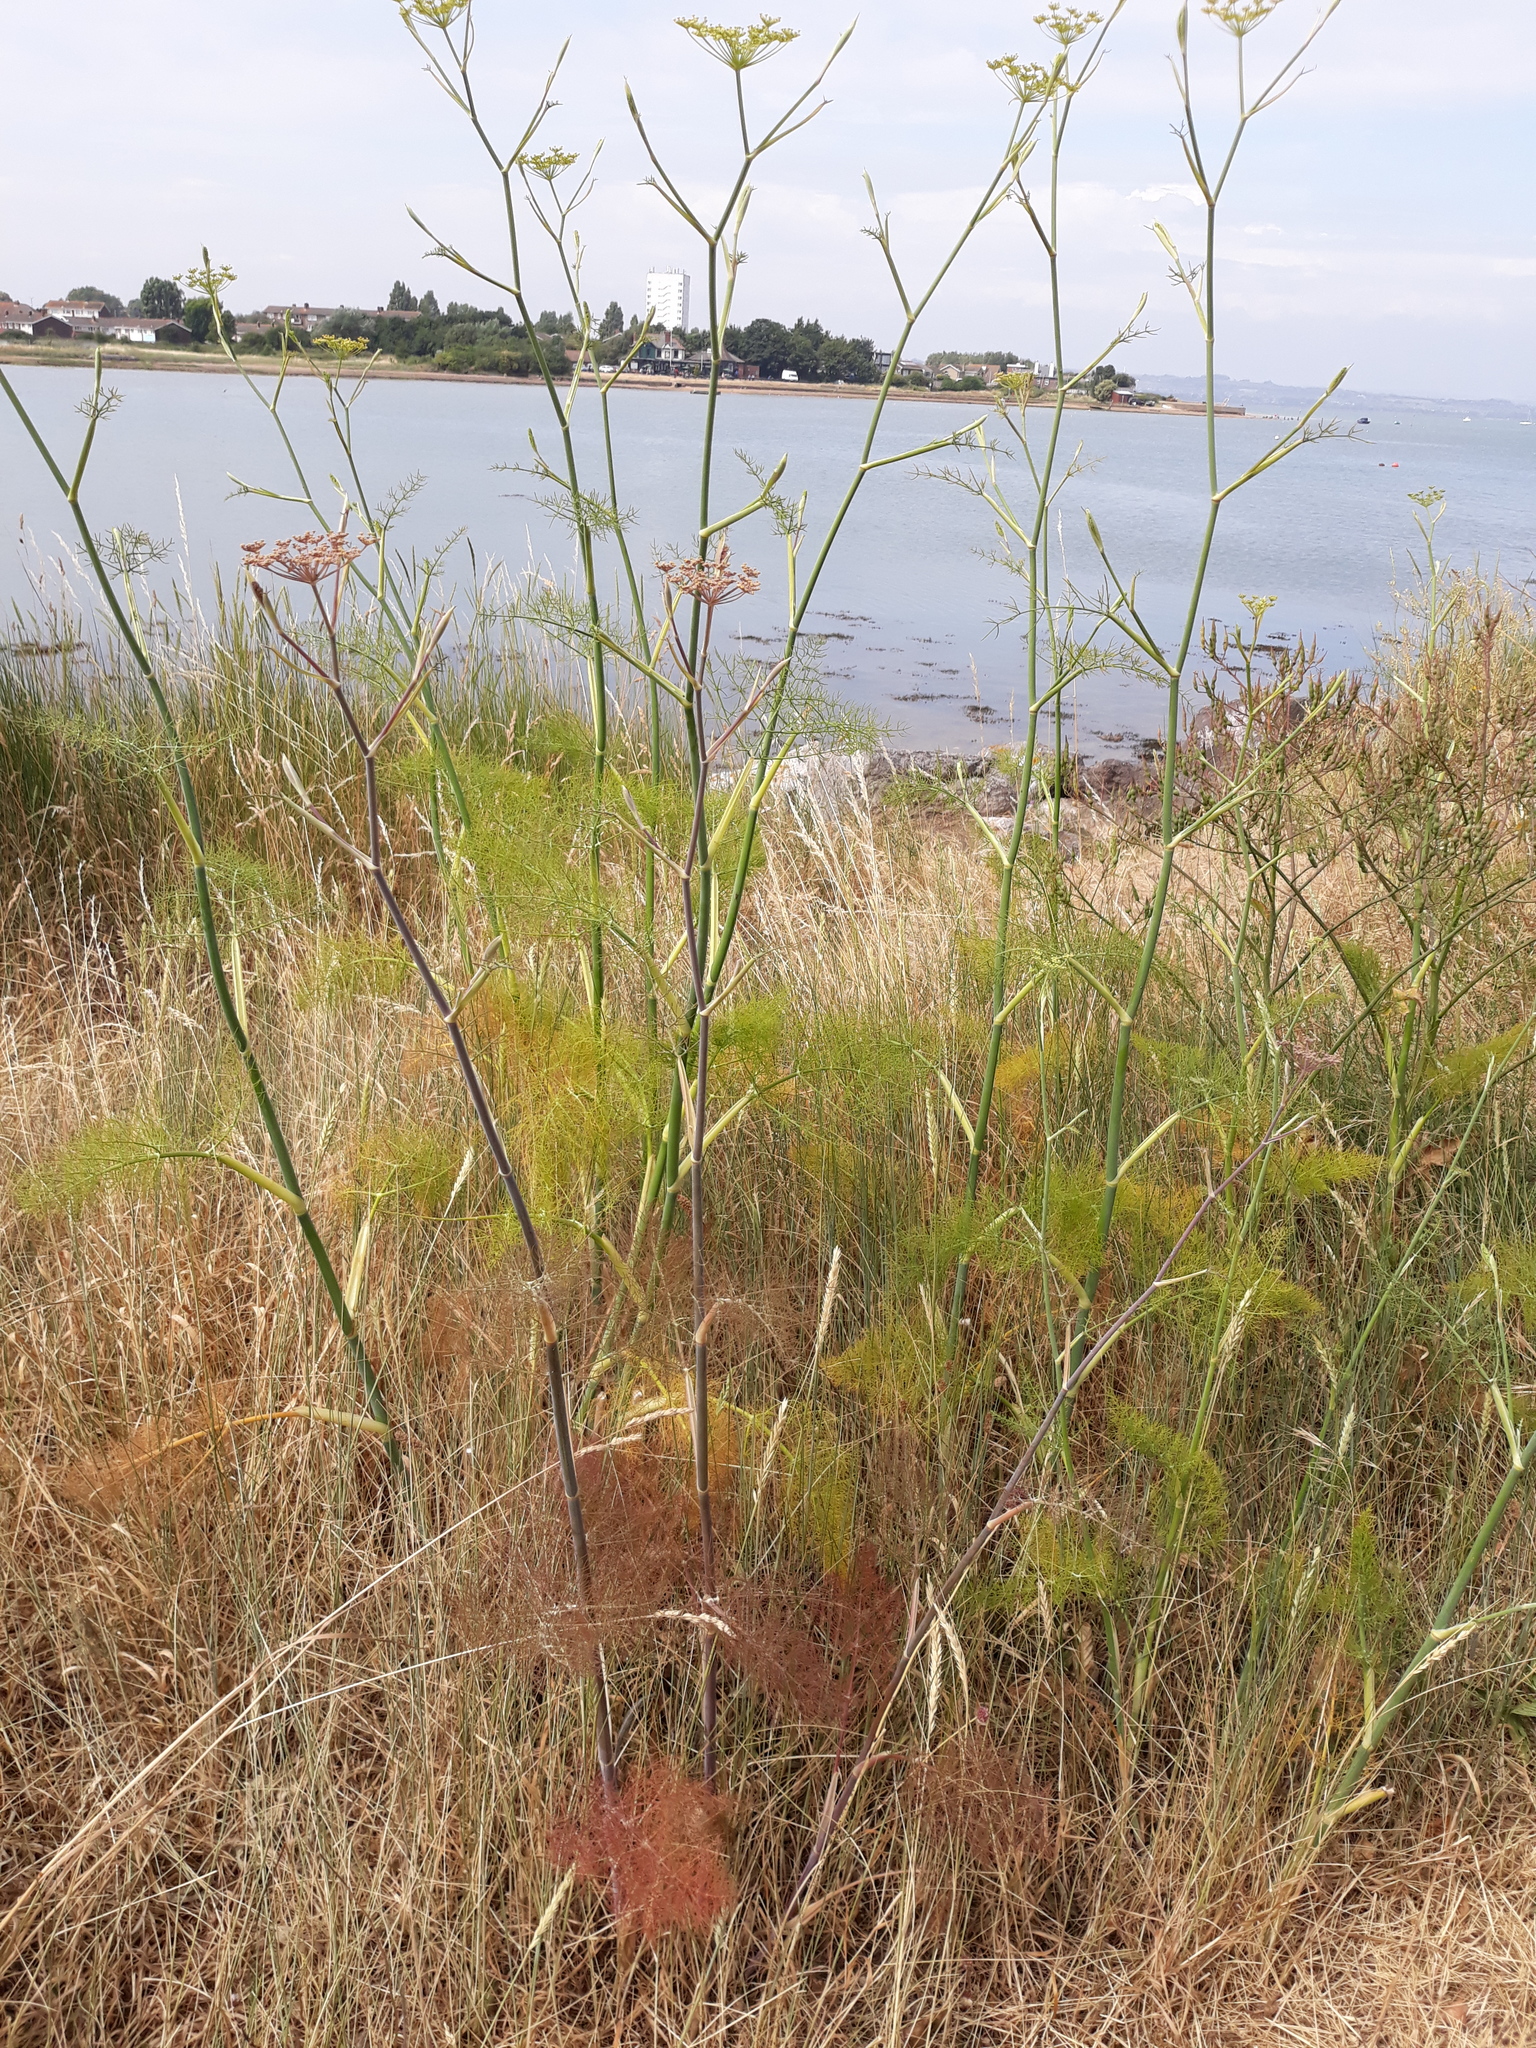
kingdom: Plantae
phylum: Tracheophyta
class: Magnoliopsida
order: Apiales
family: Apiaceae
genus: Foeniculum
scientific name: Foeniculum vulgare
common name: Fennel
